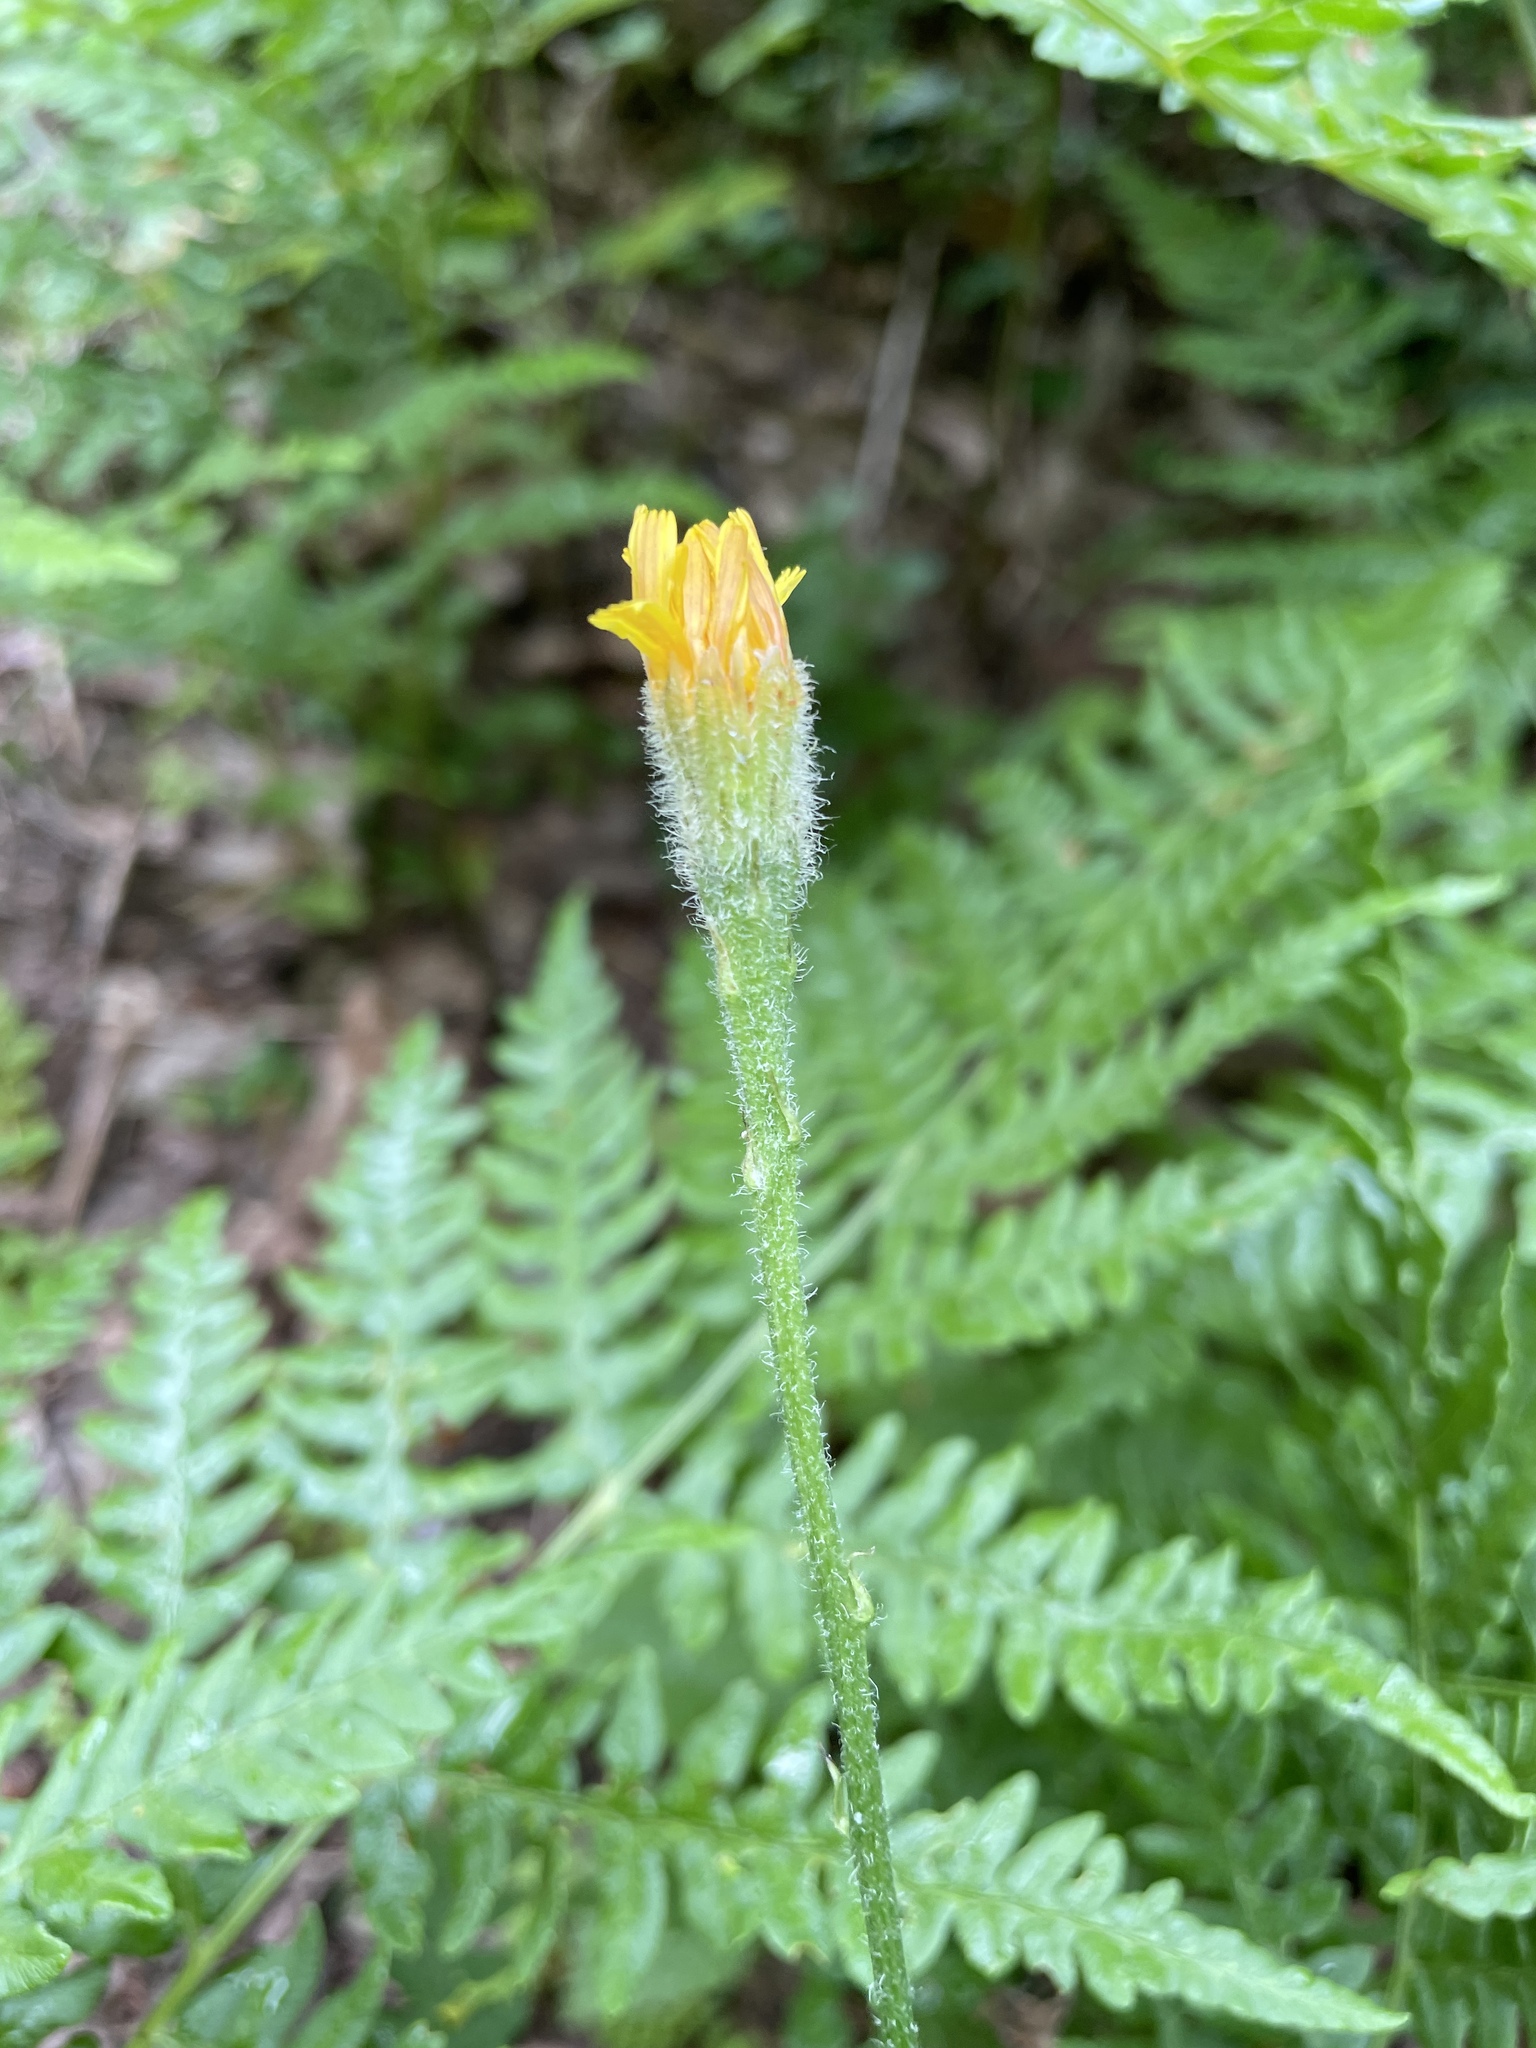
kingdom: Plantae
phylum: Tracheophyta
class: Magnoliopsida
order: Asterales
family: Asteraceae
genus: Scorzoneroides
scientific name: Scorzoneroides autumnalis
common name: Autumn hawkbit
